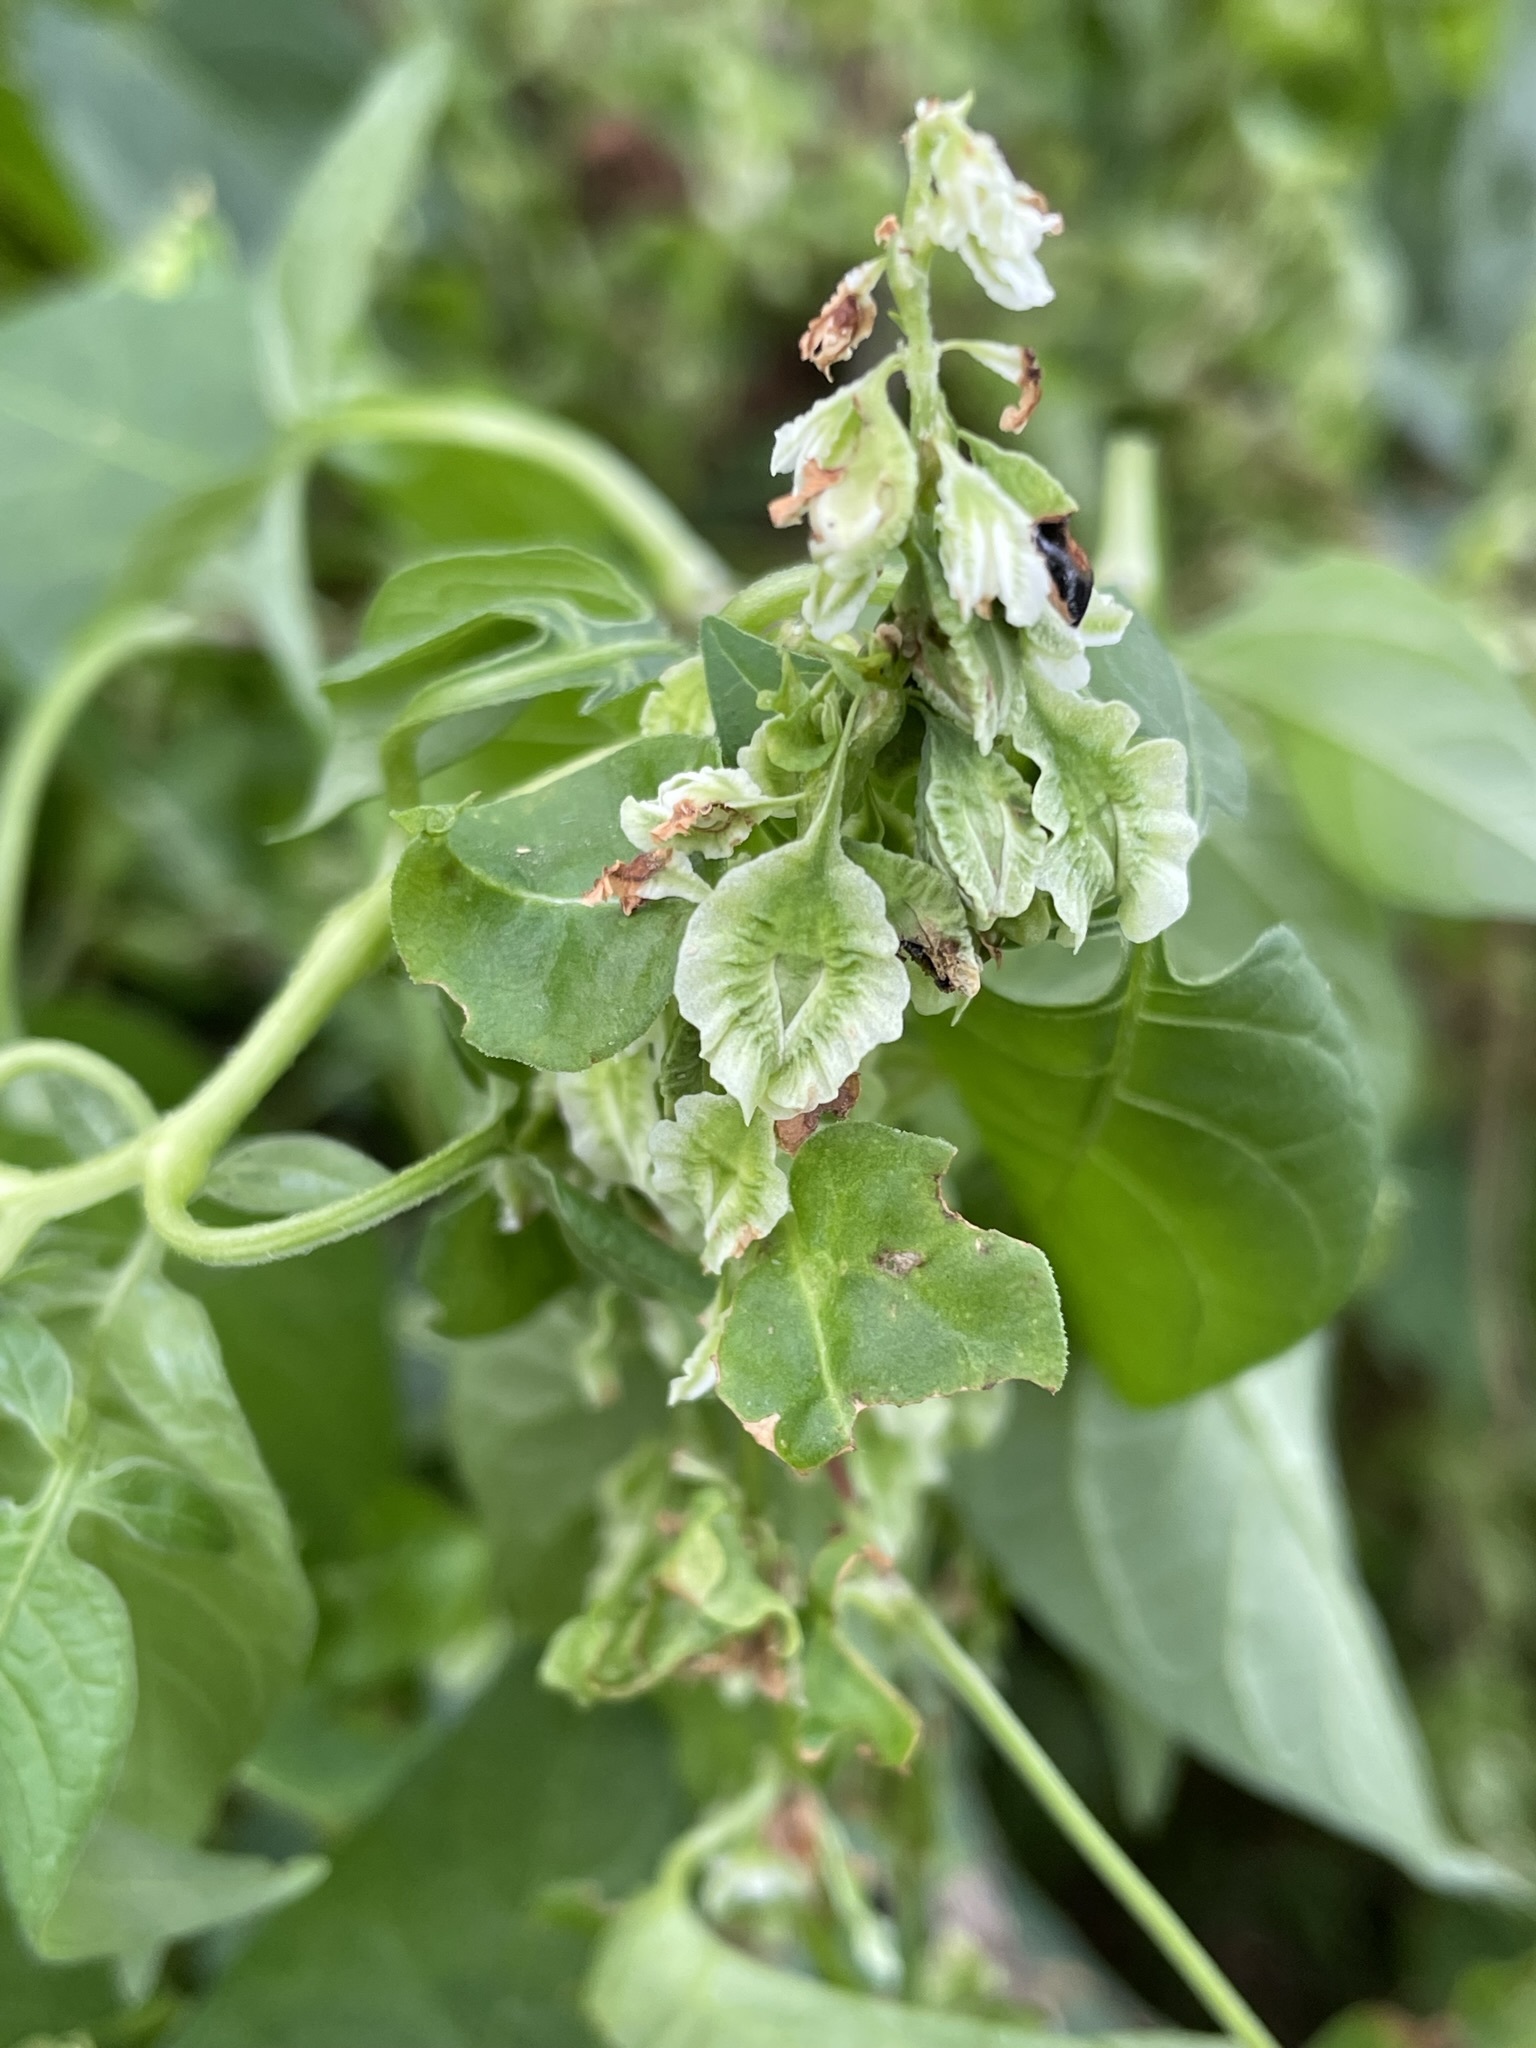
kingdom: Plantae
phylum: Tracheophyta
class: Magnoliopsida
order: Caryophyllales
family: Polygonaceae
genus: Fallopia
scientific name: Fallopia scandens
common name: Climbing false buckwheat
